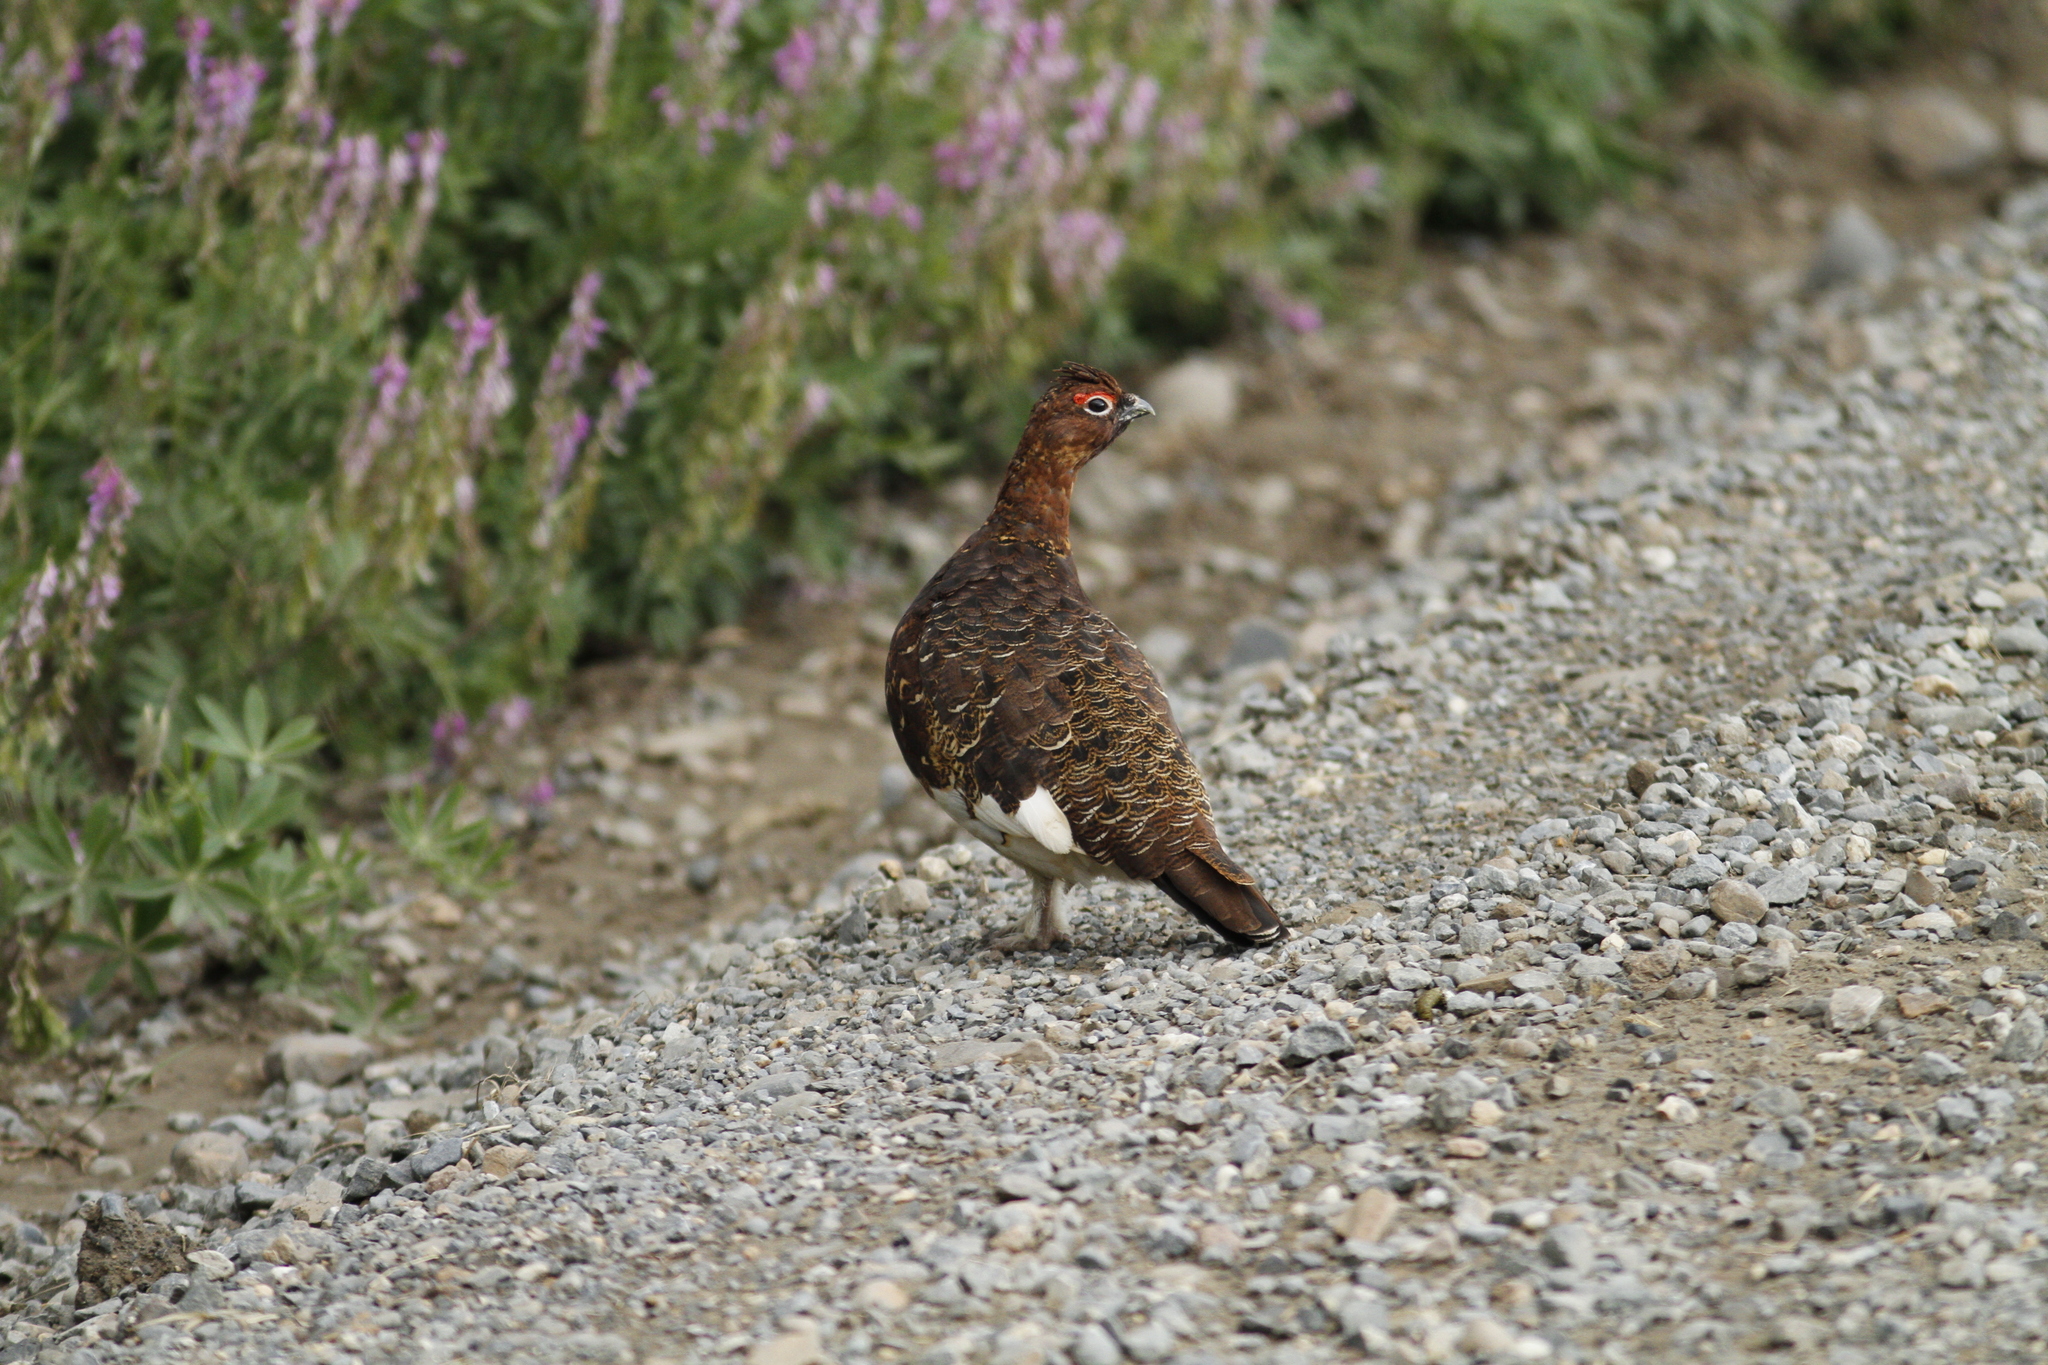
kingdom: Animalia
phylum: Chordata
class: Aves
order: Galliformes
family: Phasianidae
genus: Lagopus
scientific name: Lagopus lagopus
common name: Willow ptarmigan
